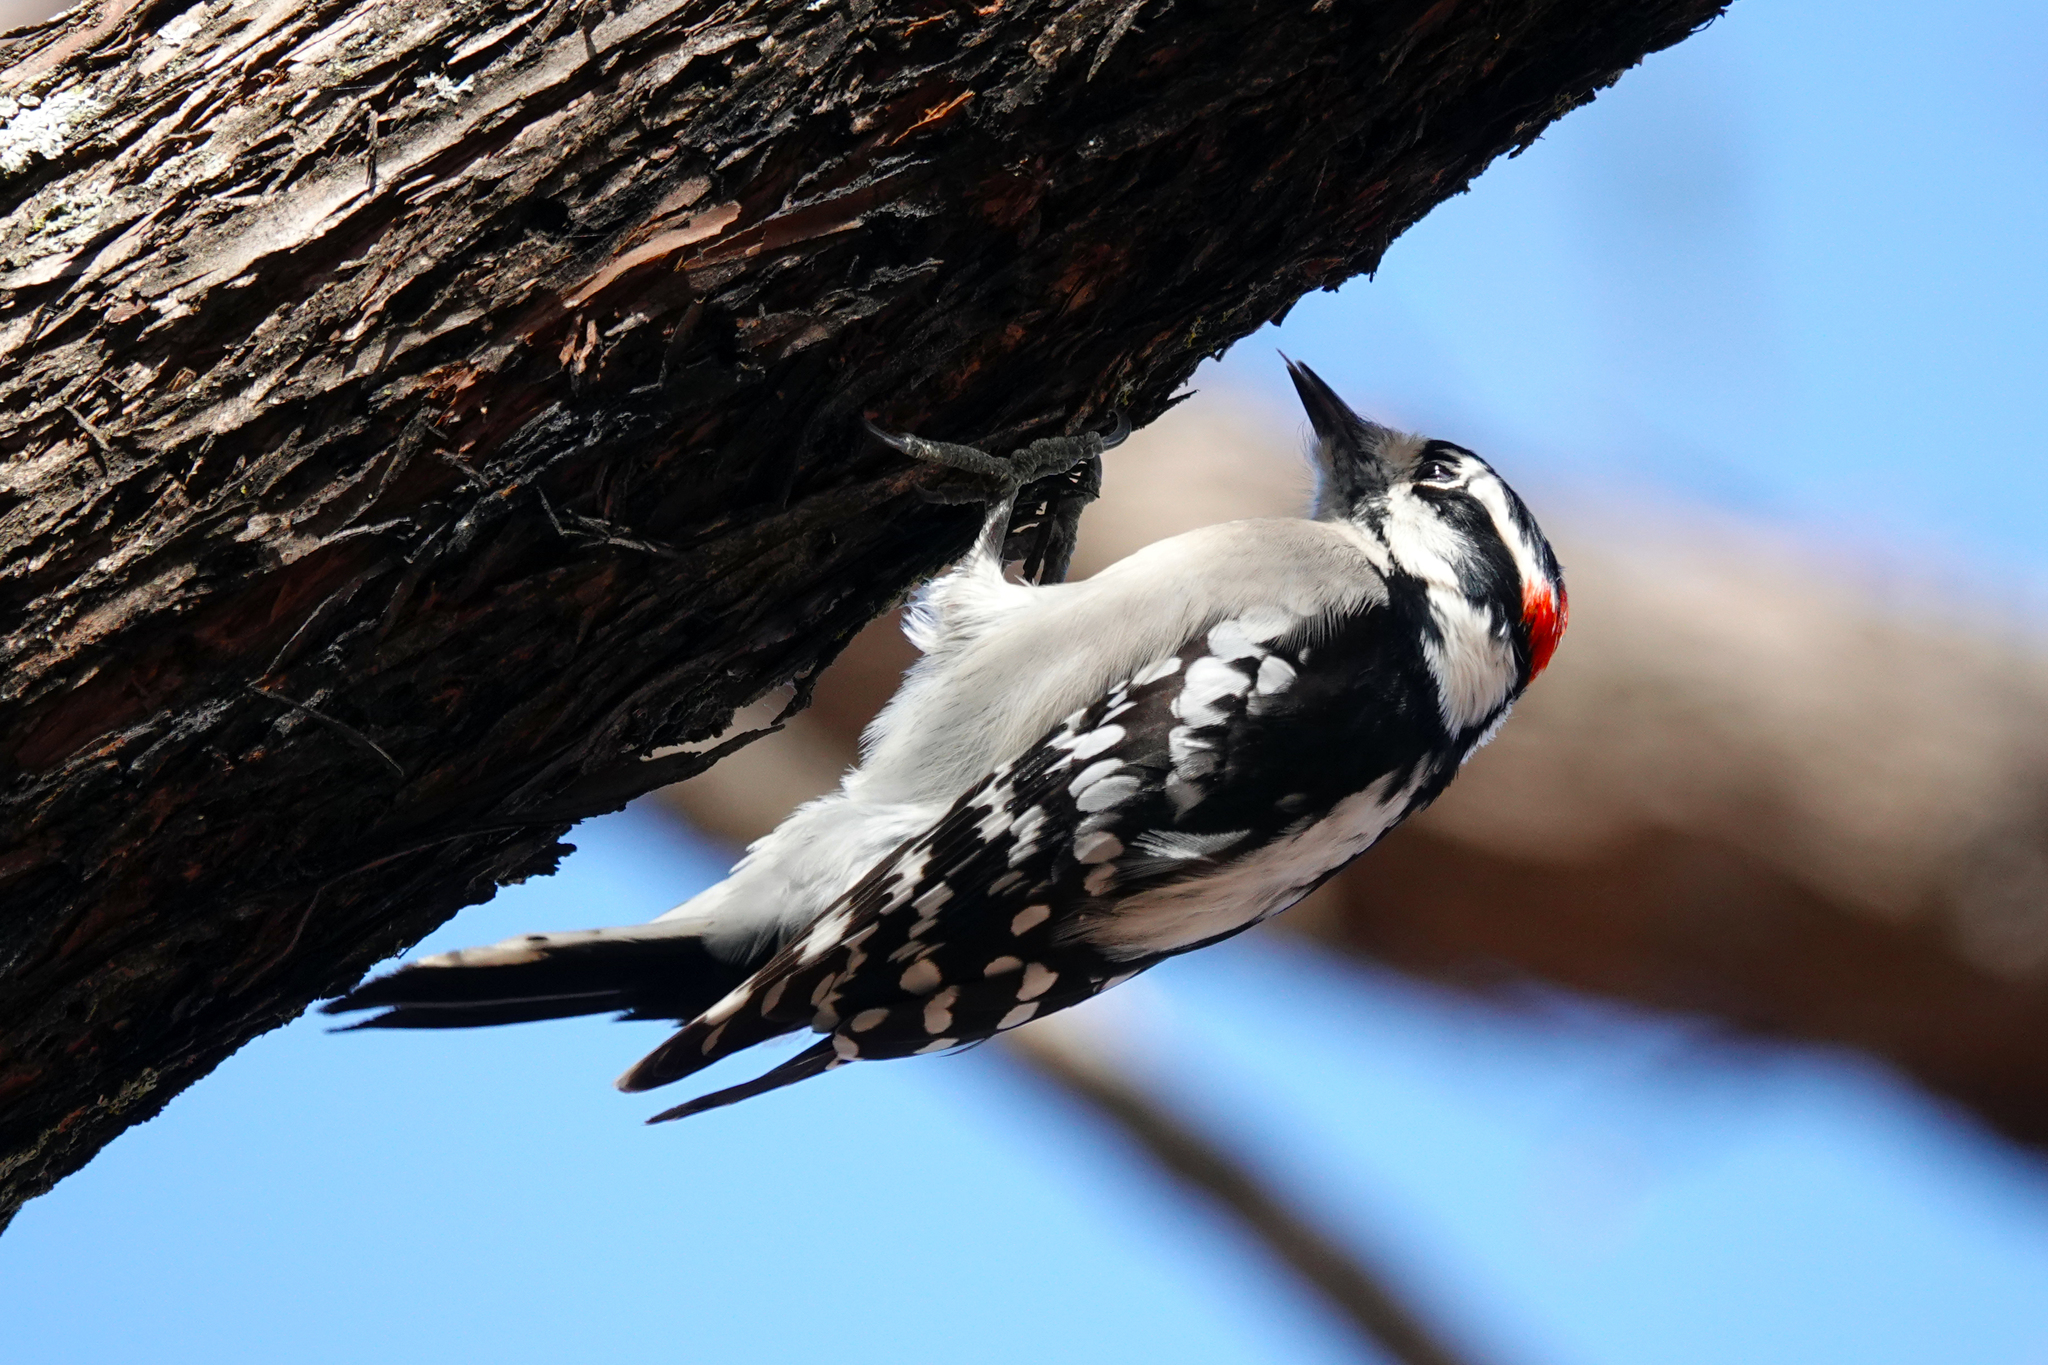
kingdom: Animalia
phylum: Chordata
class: Aves
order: Piciformes
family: Picidae
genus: Dryobates
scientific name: Dryobates pubescens
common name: Downy woodpecker
